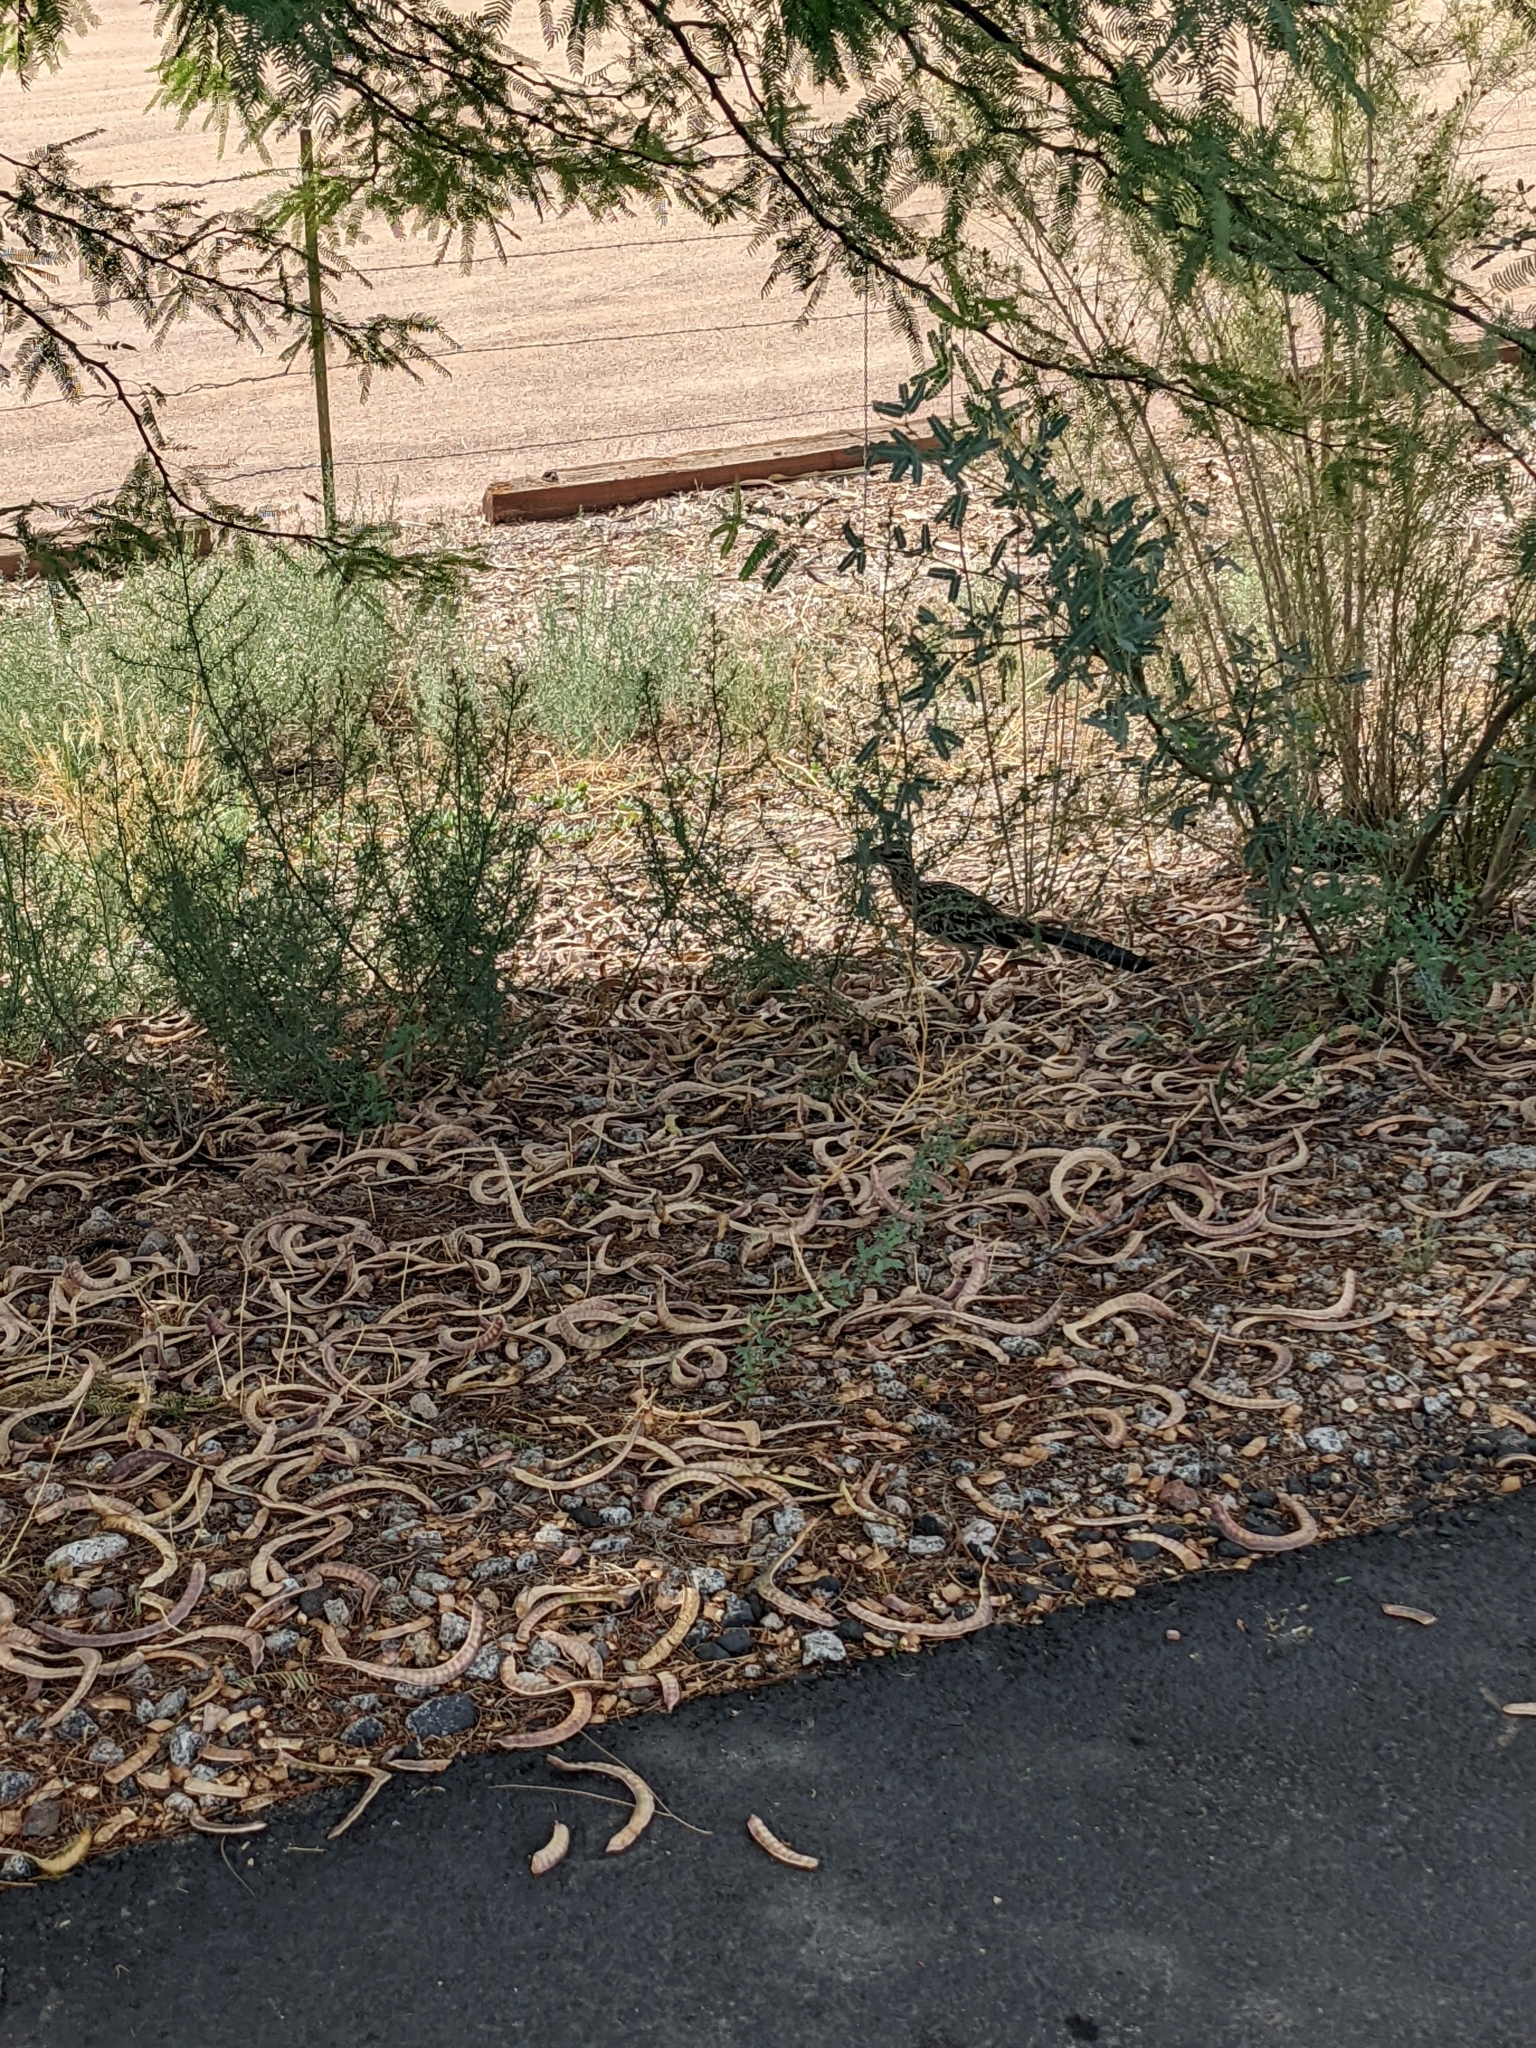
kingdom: Animalia
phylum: Chordata
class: Aves
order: Cuculiformes
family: Cuculidae
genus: Geococcyx
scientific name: Geococcyx californianus
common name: Greater roadrunner
